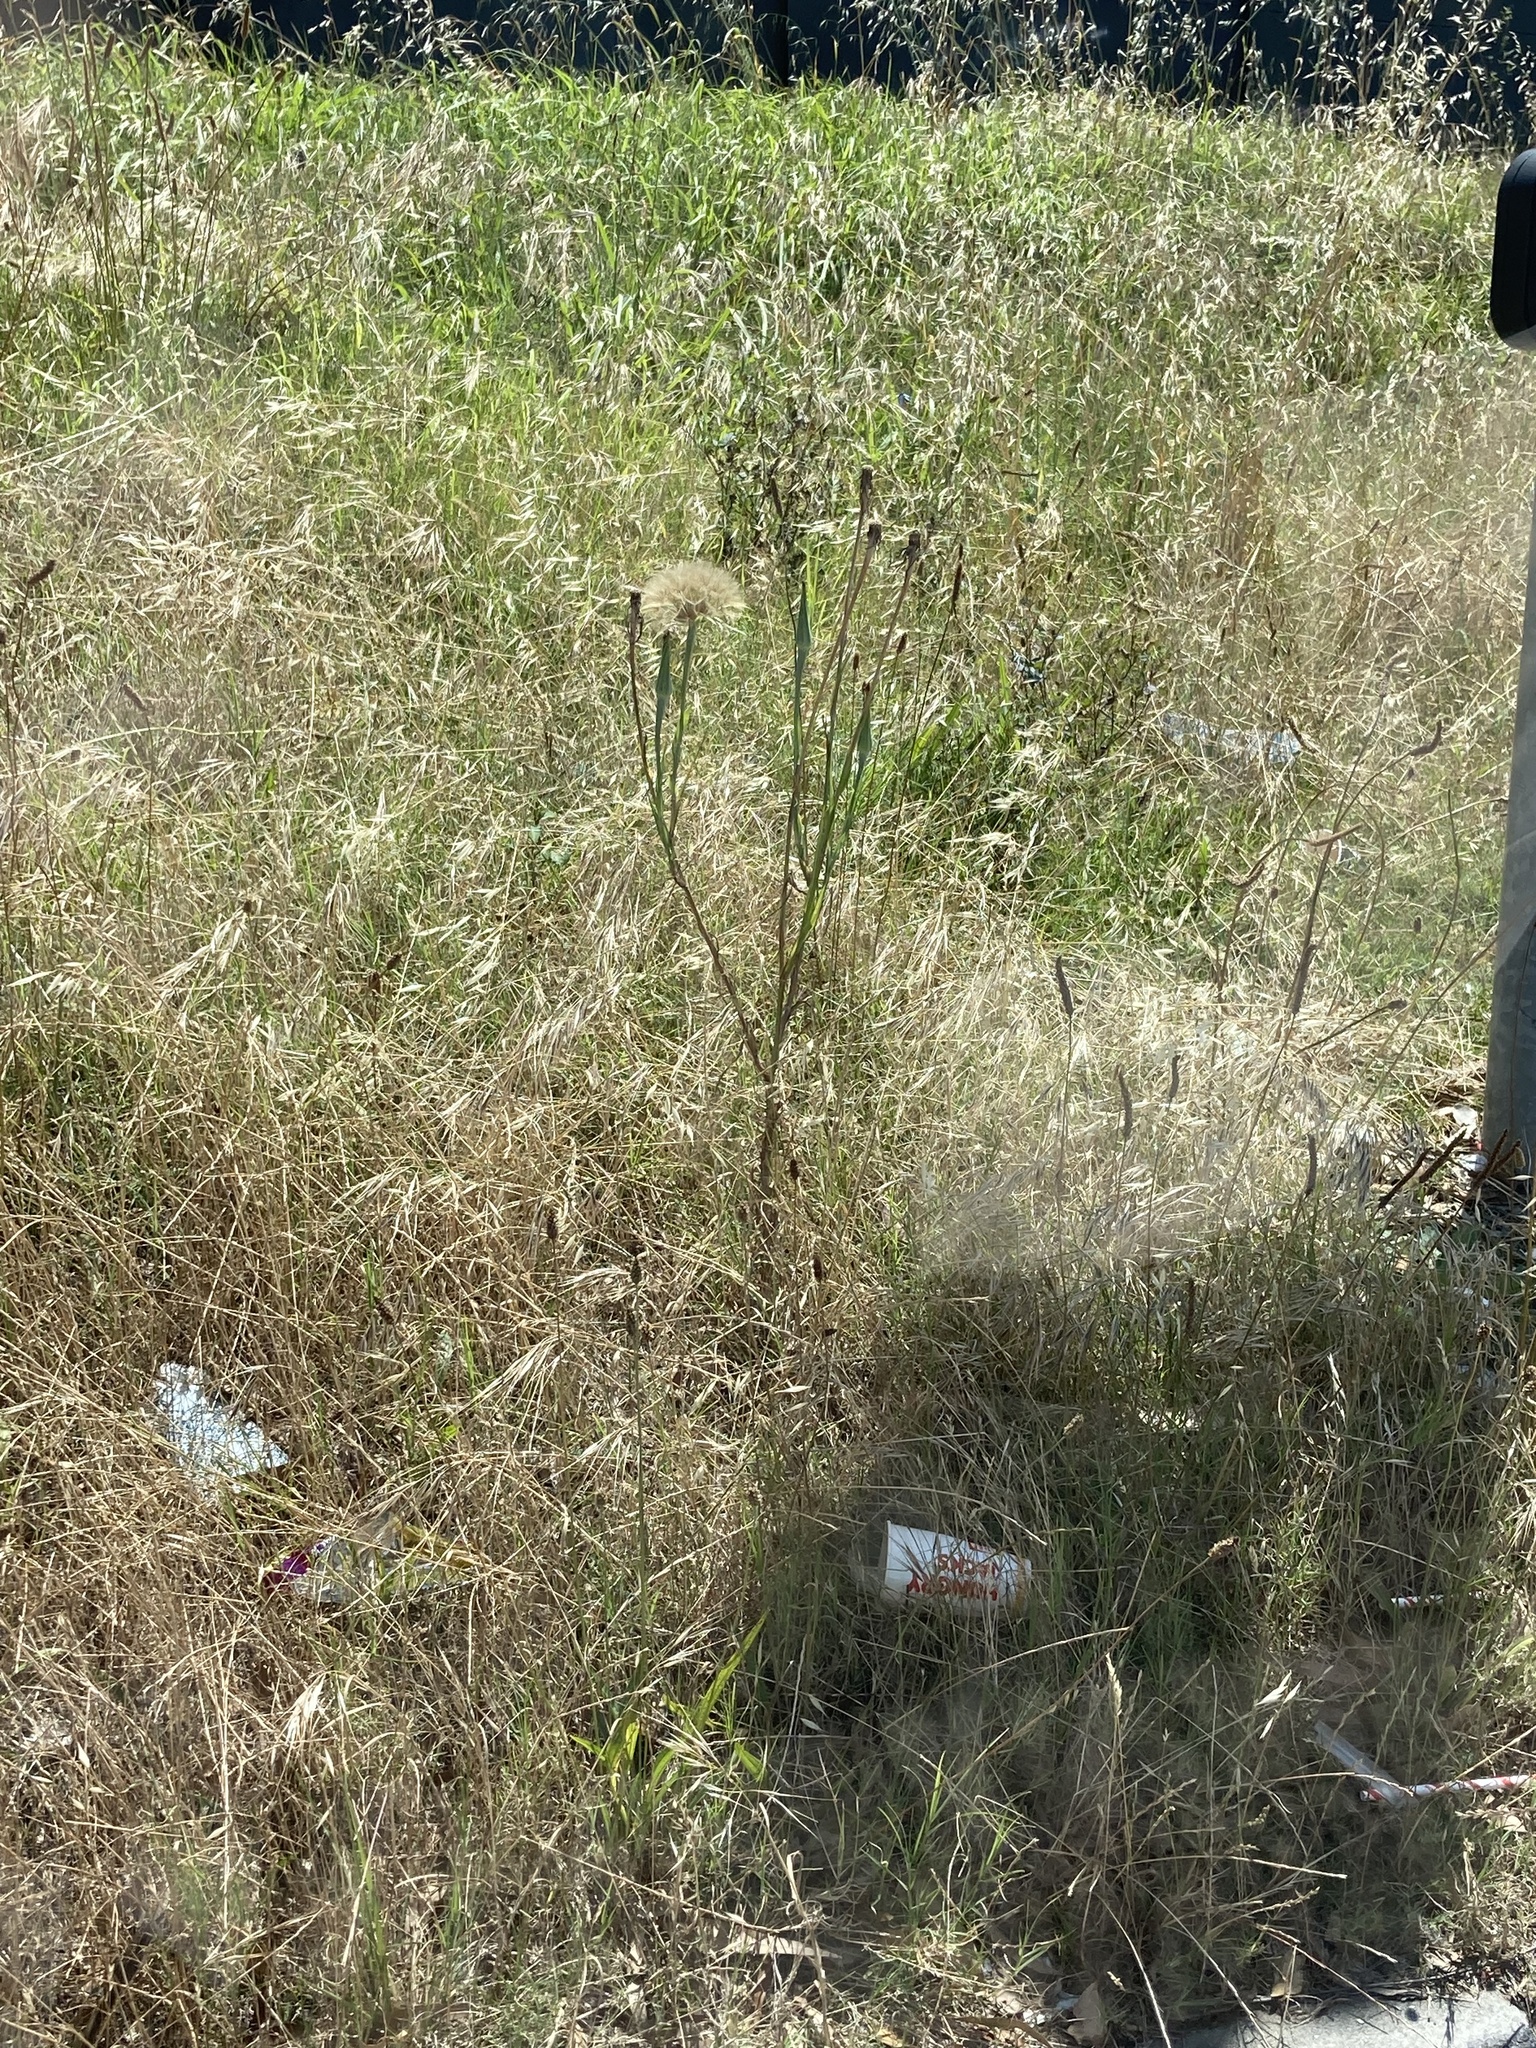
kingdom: Plantae
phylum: Tracheophyta
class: Magnoliopsida
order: Asterales
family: Asteraceae
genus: Tragopogon
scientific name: Tragopogon porrifolius
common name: Salsify
